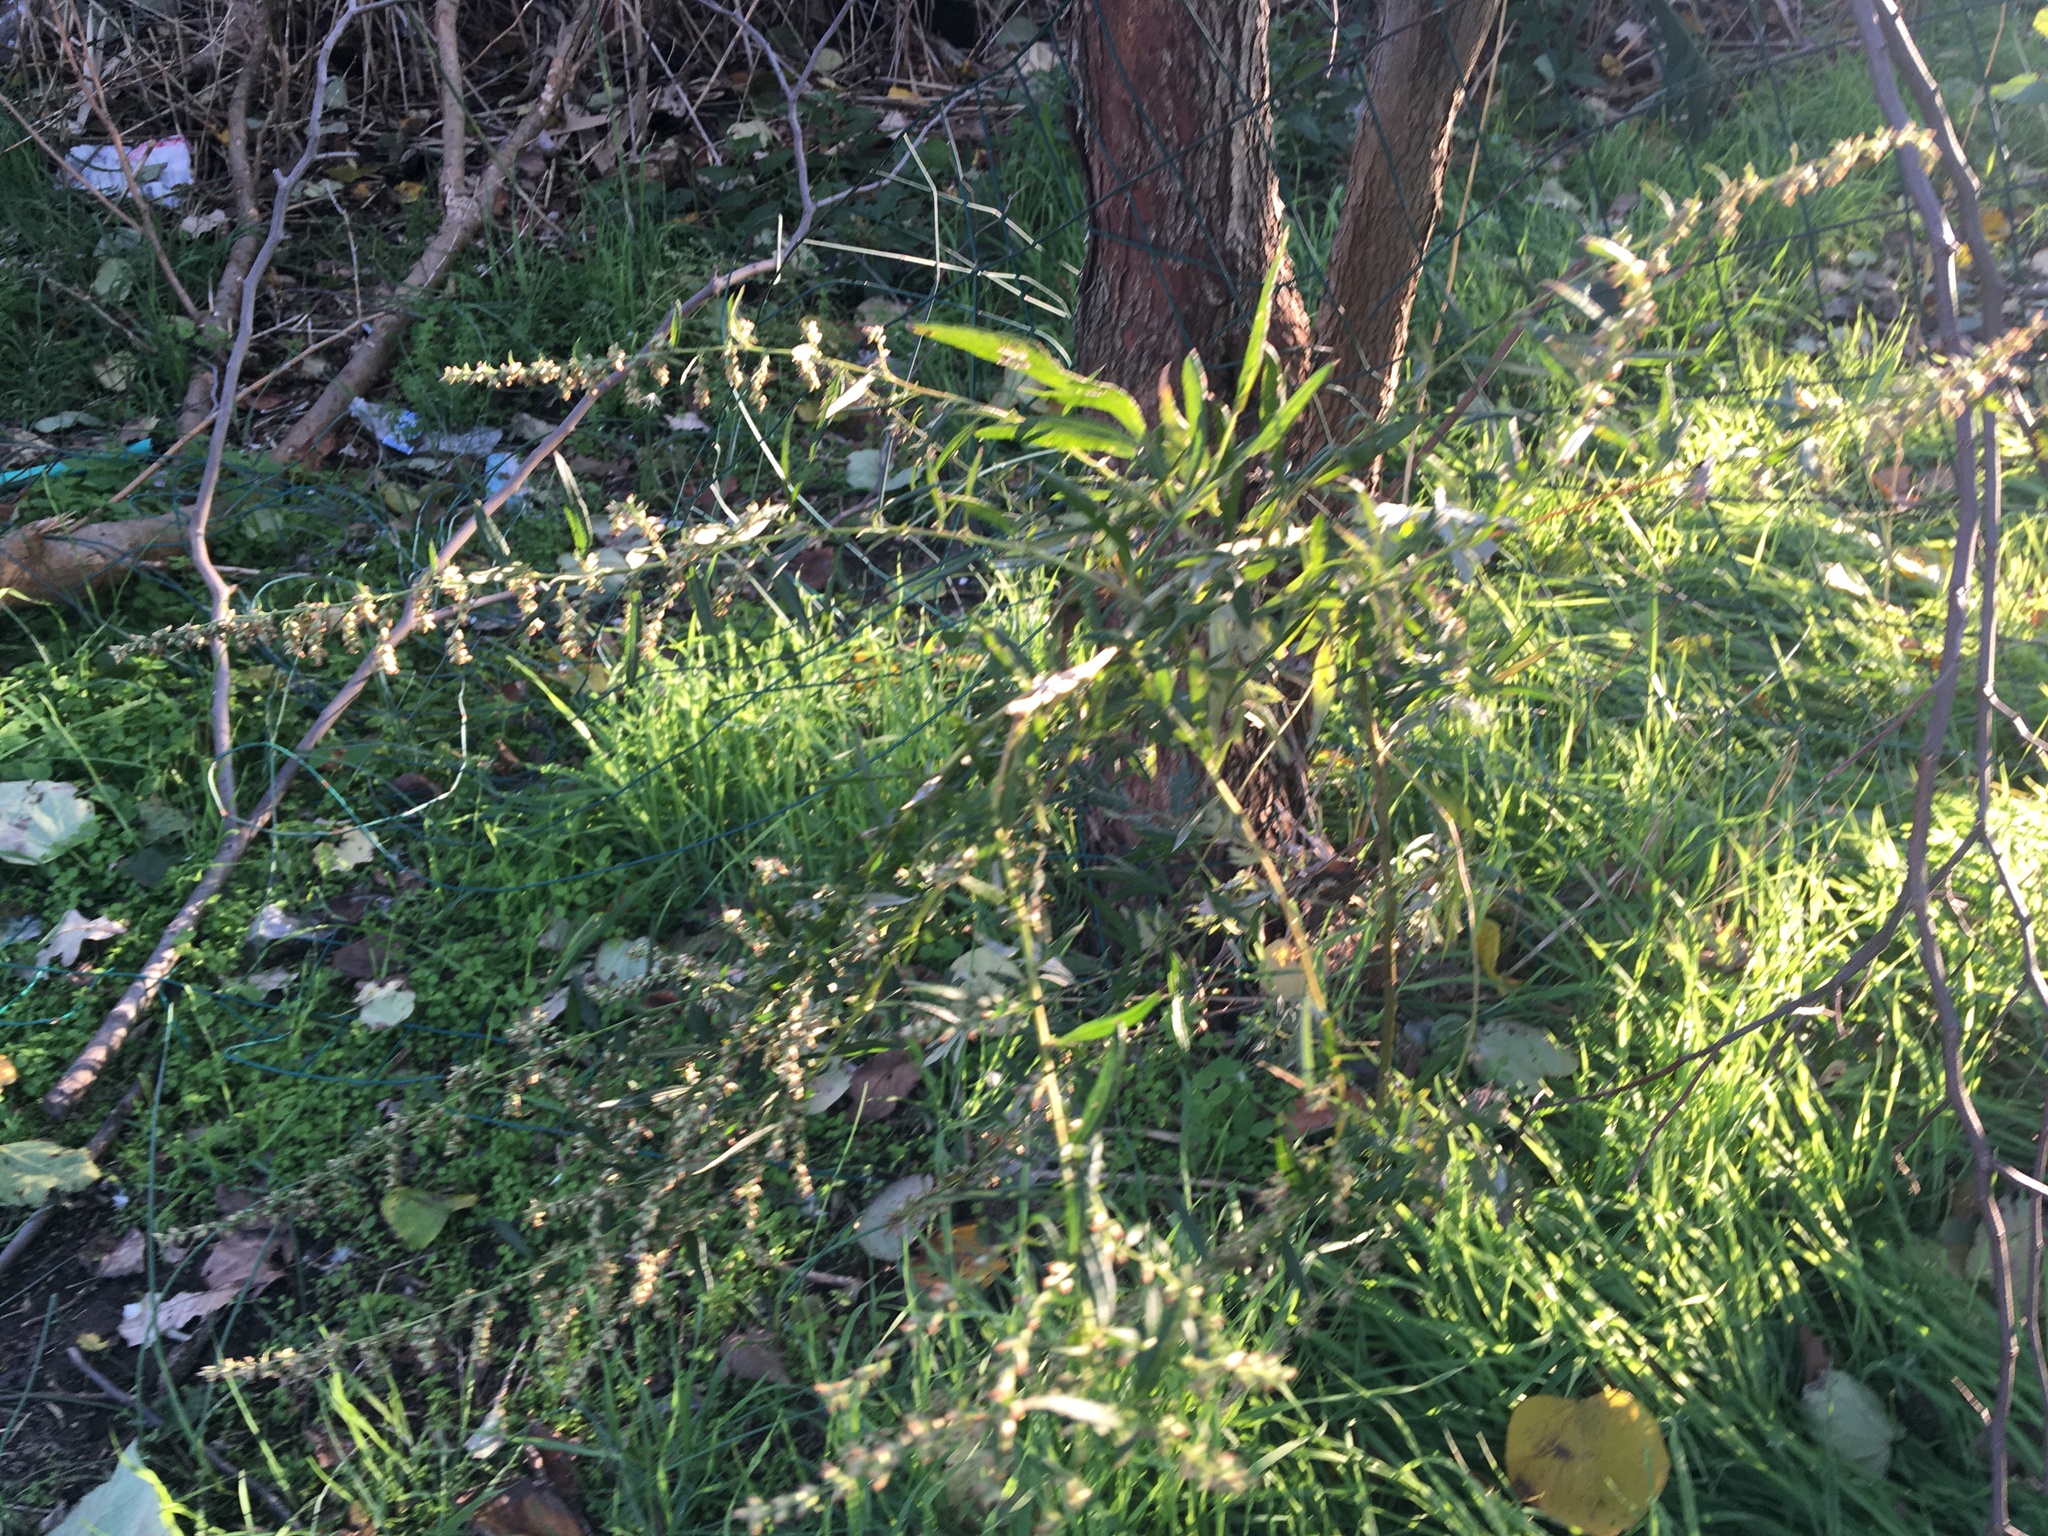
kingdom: Plantae
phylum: Tracheophyta
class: Magnoliopsida
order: Asterales
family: Asteraceae
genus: Artemisia
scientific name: Artemisia vulgaris
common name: Mugwort
